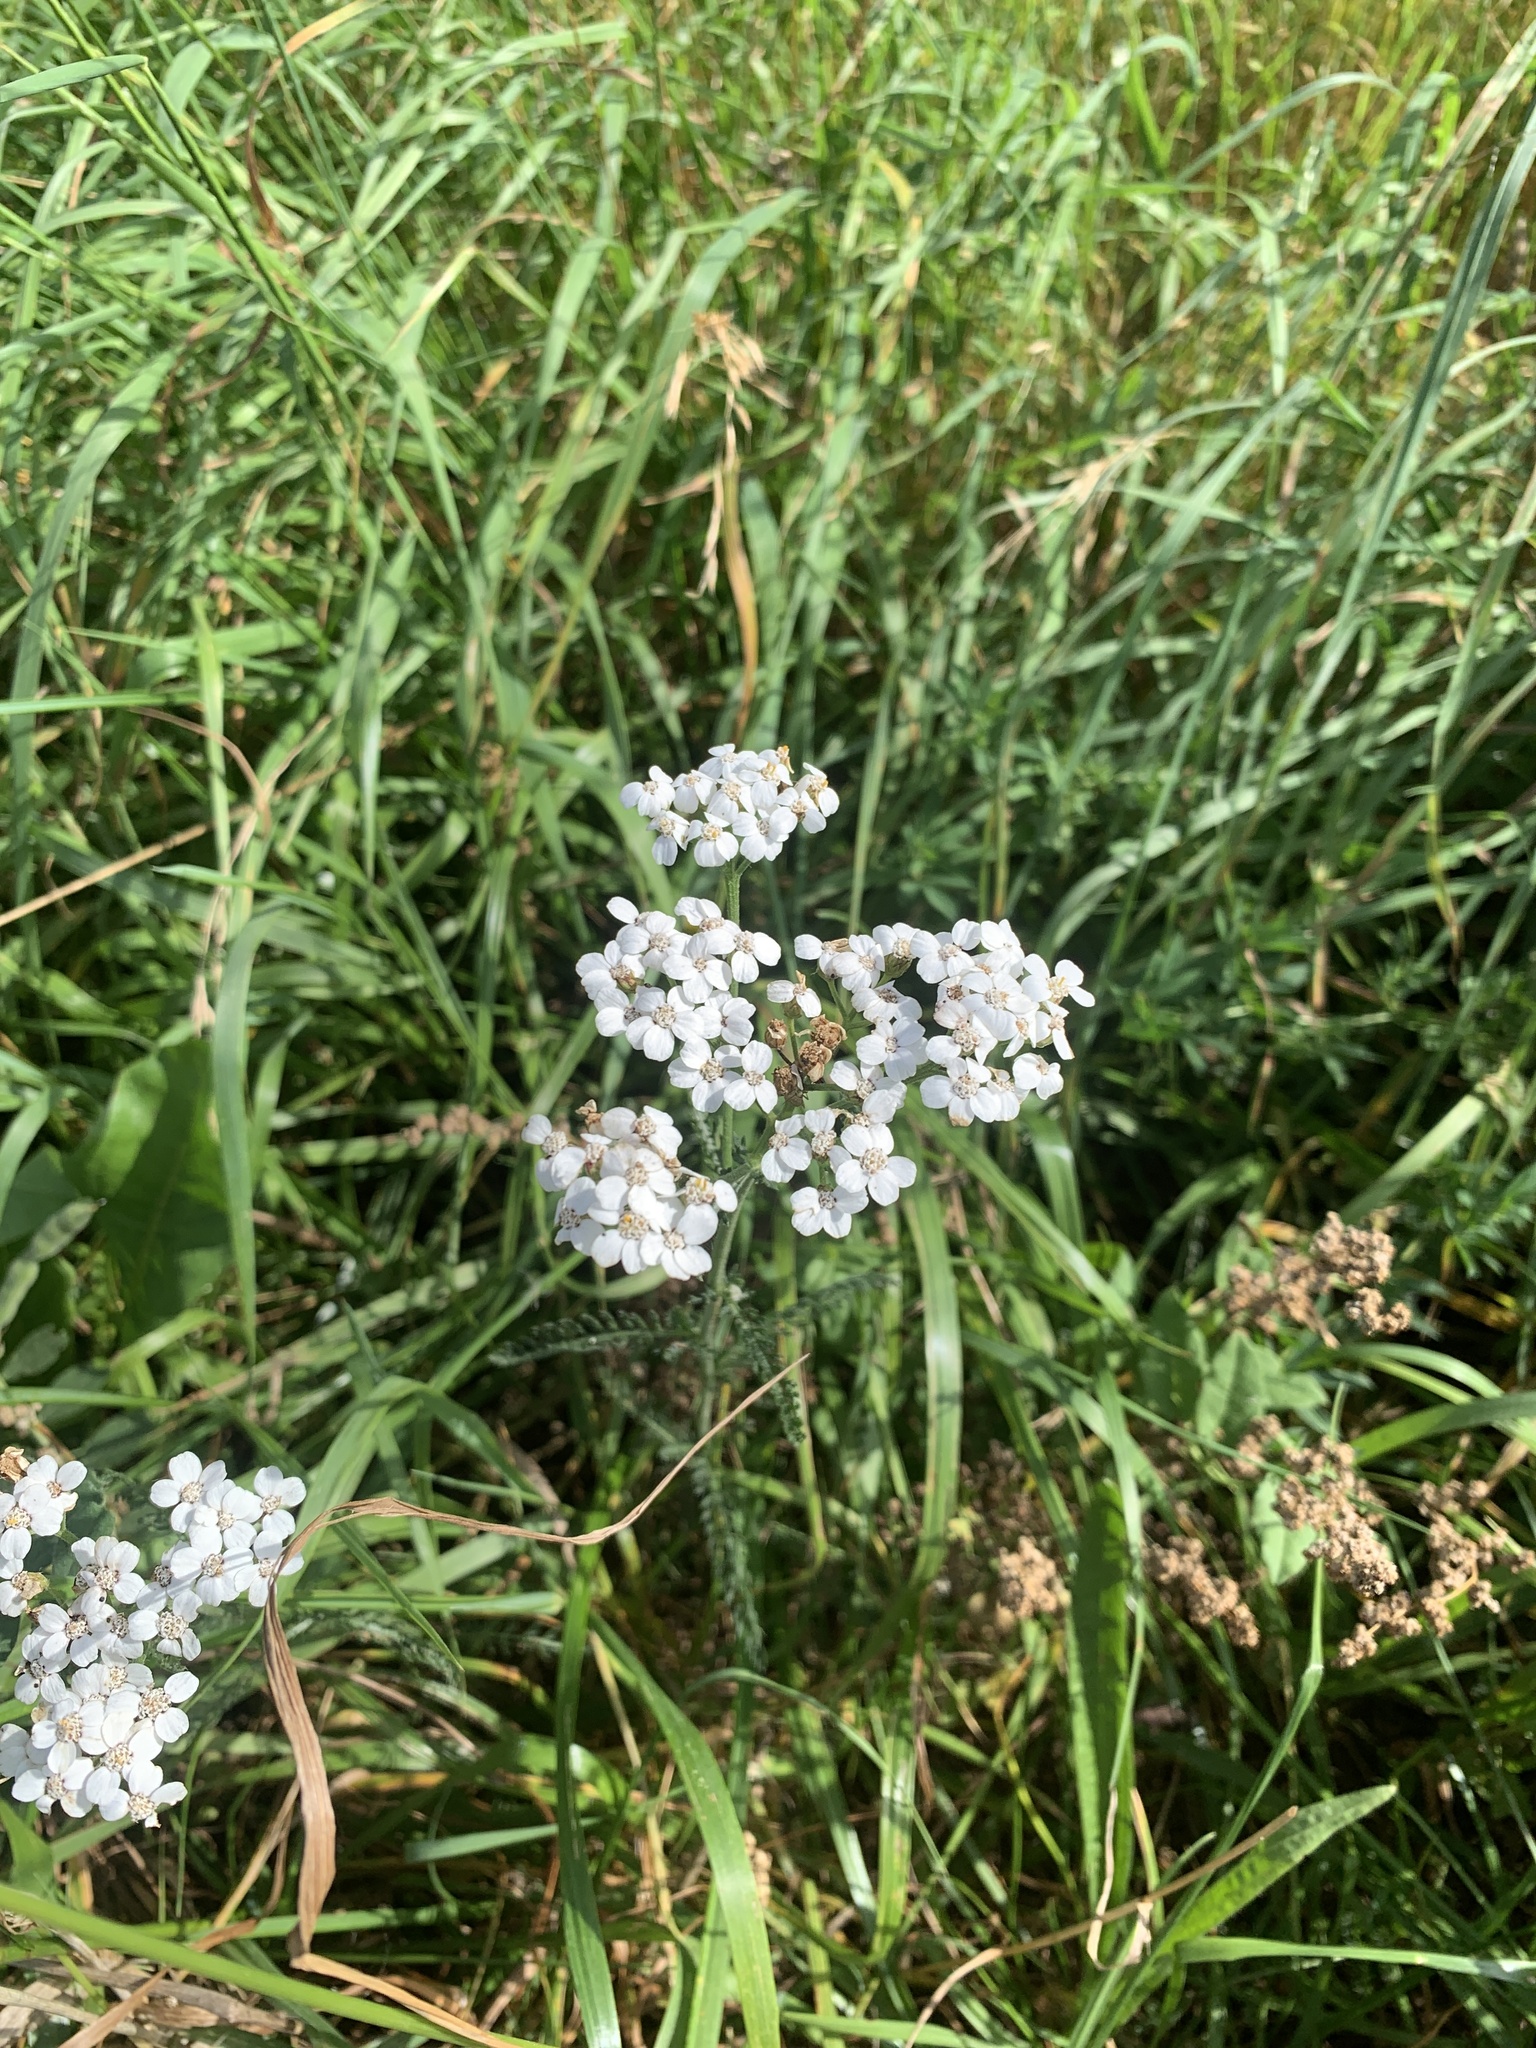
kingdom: Plantae
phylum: Tracheophyta
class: Magnoliopsida
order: Asterales
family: Asteraceae
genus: Achillea
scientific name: Achillea millefolium
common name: Yarrow
